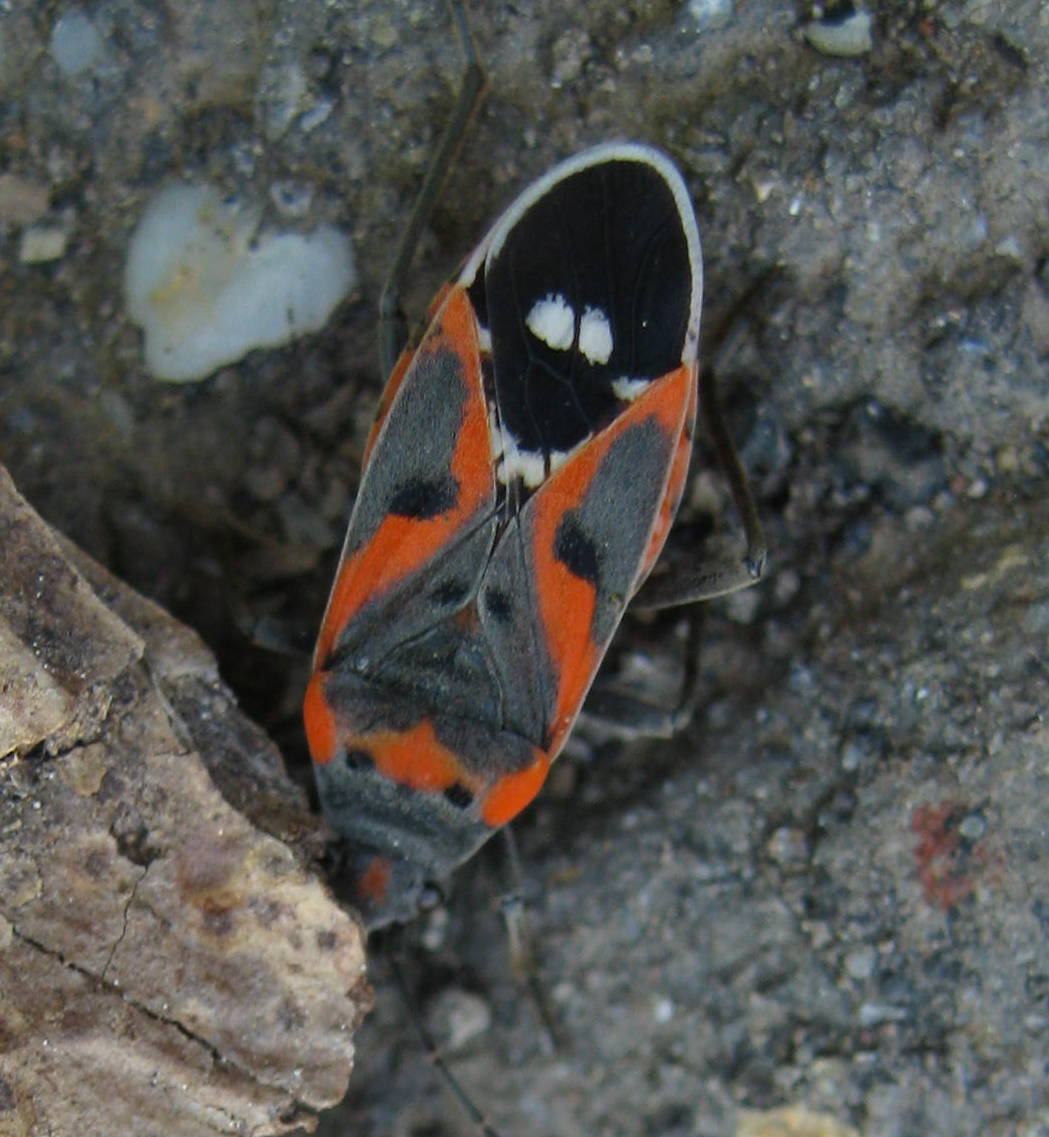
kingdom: Animalia
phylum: Arthropoda
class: Insecta
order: Hemiptera
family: Lygaeidae
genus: Lygaeus
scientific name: Lygaeus kalmii
